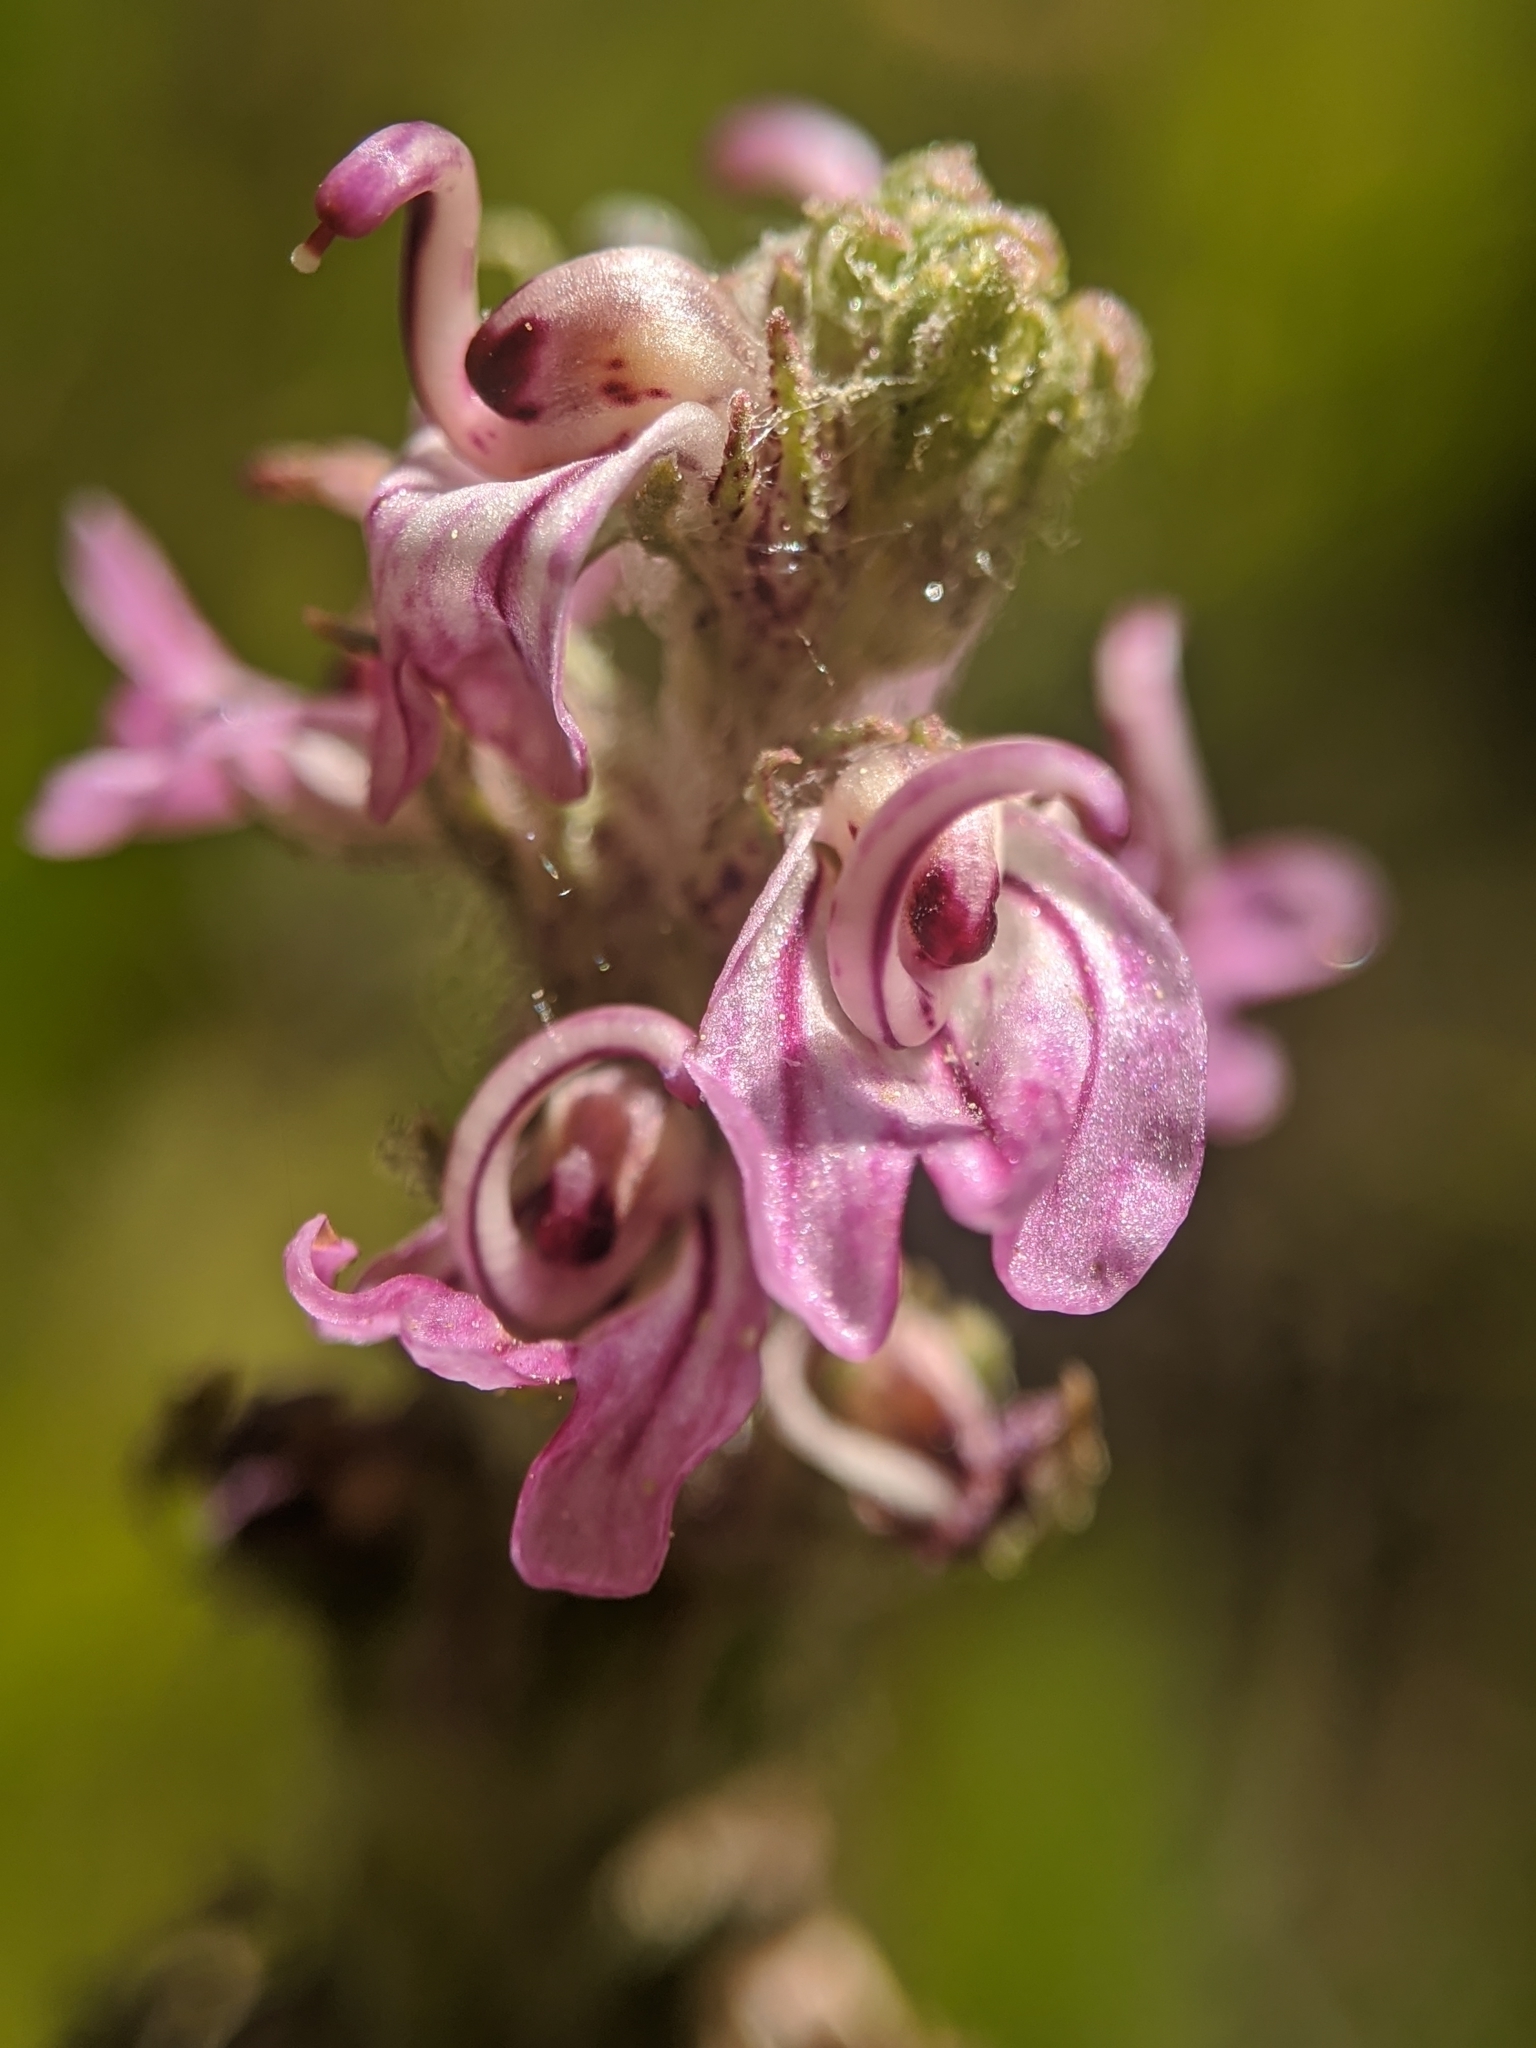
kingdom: Plantae
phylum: Tracheophyta
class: Magnoliopsida
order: Lamiales
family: Orobanchaceae
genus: Pedicularis
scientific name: Pedicularis attollens
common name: Slender pedicularis
